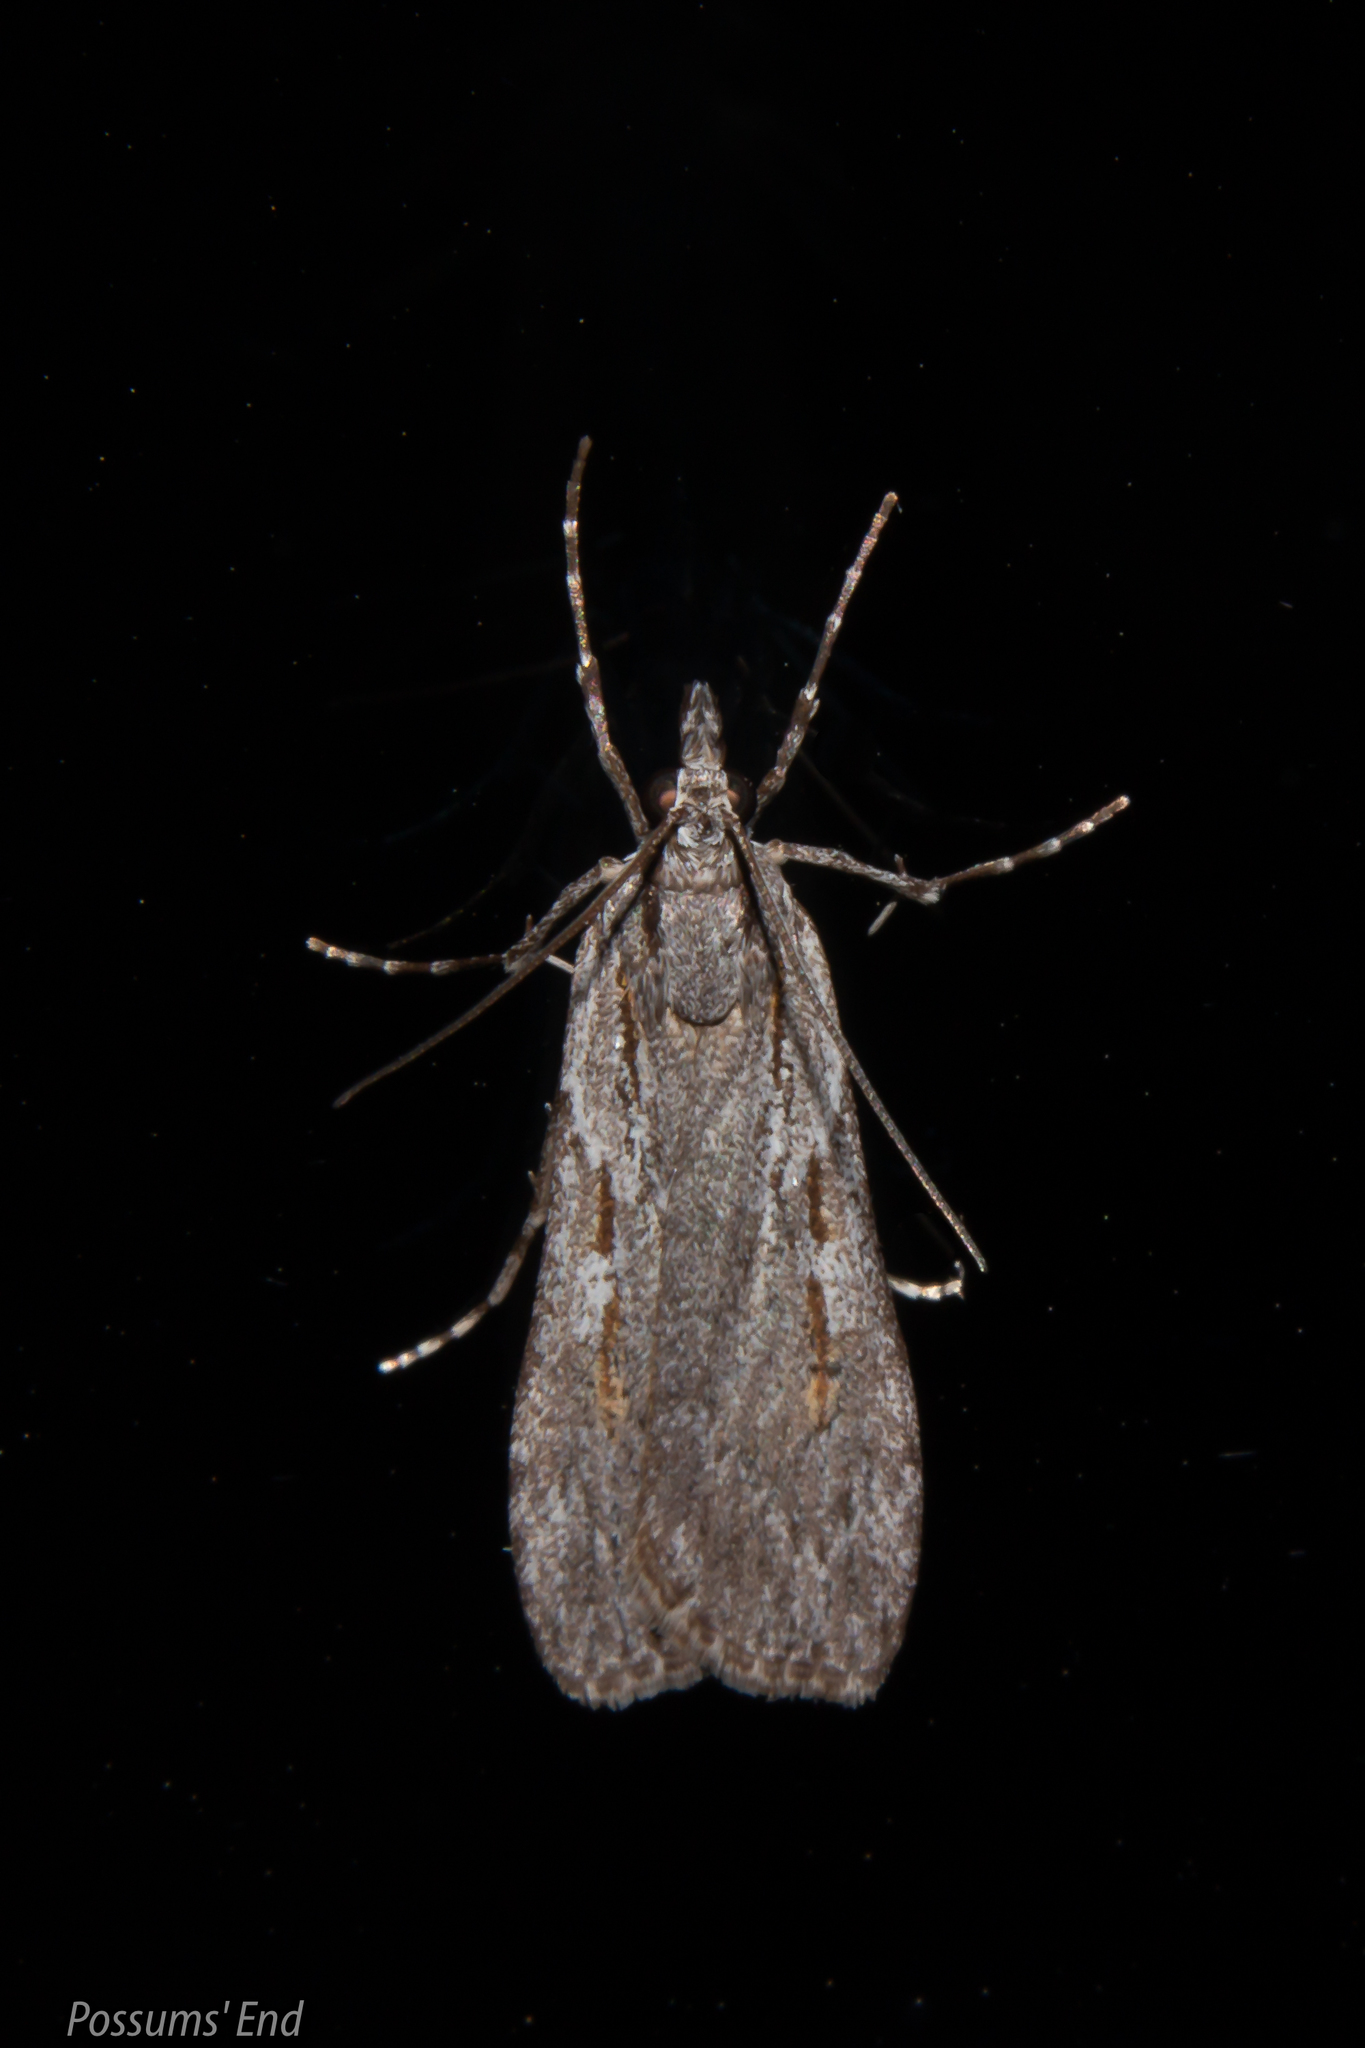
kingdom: Animalia
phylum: Arthropoda
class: Insecta
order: Lepidoptera
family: Crambidae
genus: Scoparia
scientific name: Scoparia indistinctalis
